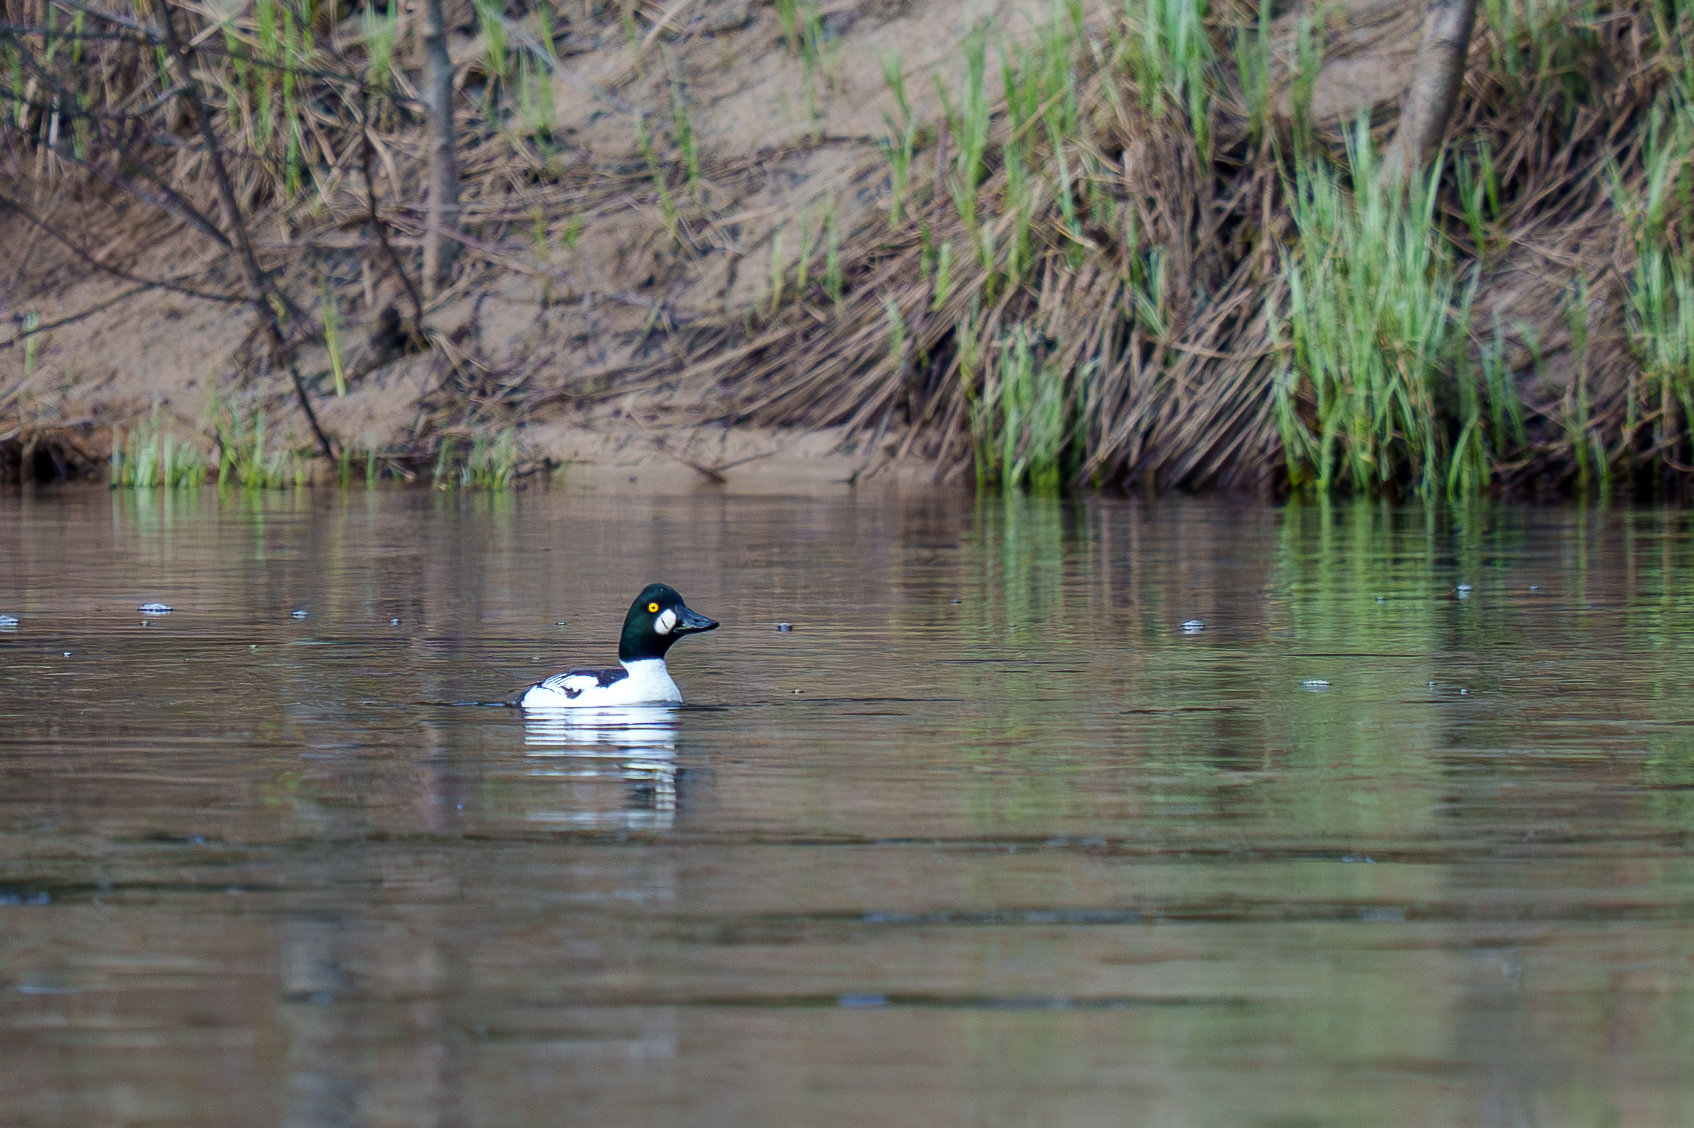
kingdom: Animalia
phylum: Chordata
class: Aves
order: Anseriformes
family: Anatidae
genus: Bucephala
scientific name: Bucephala clangula
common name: Common goldeneye
